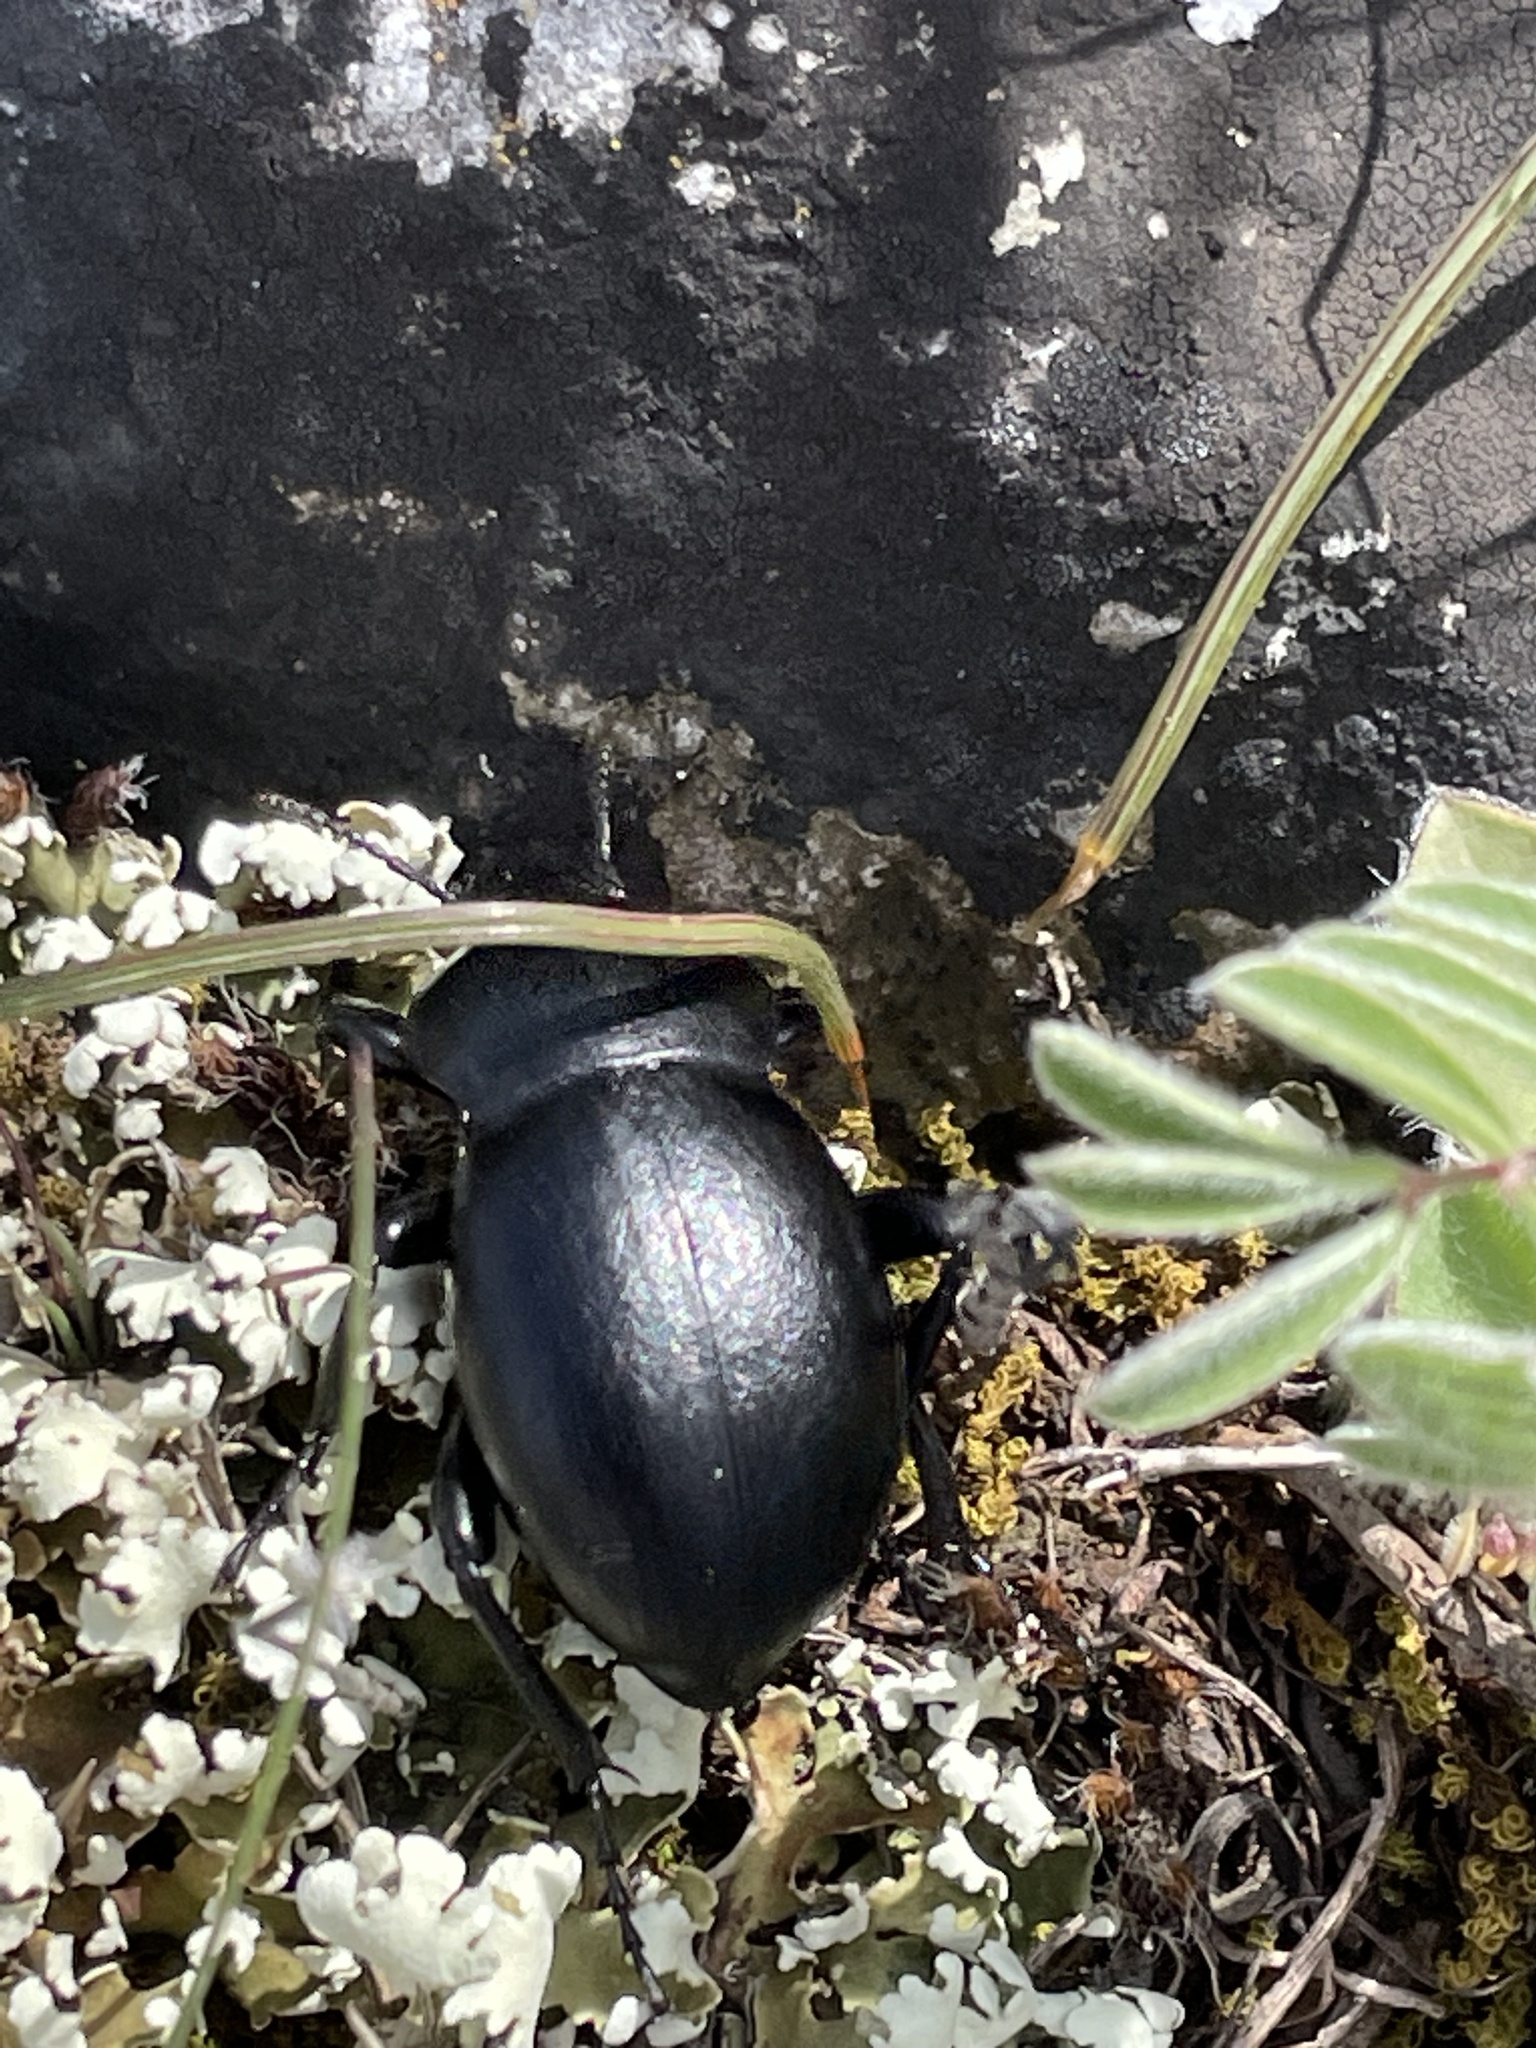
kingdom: Animalia
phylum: Arthropoda
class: Insecta
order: Coleoptera
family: Tenebrionidae
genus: Gnaptor
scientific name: Gnaptor boryi
